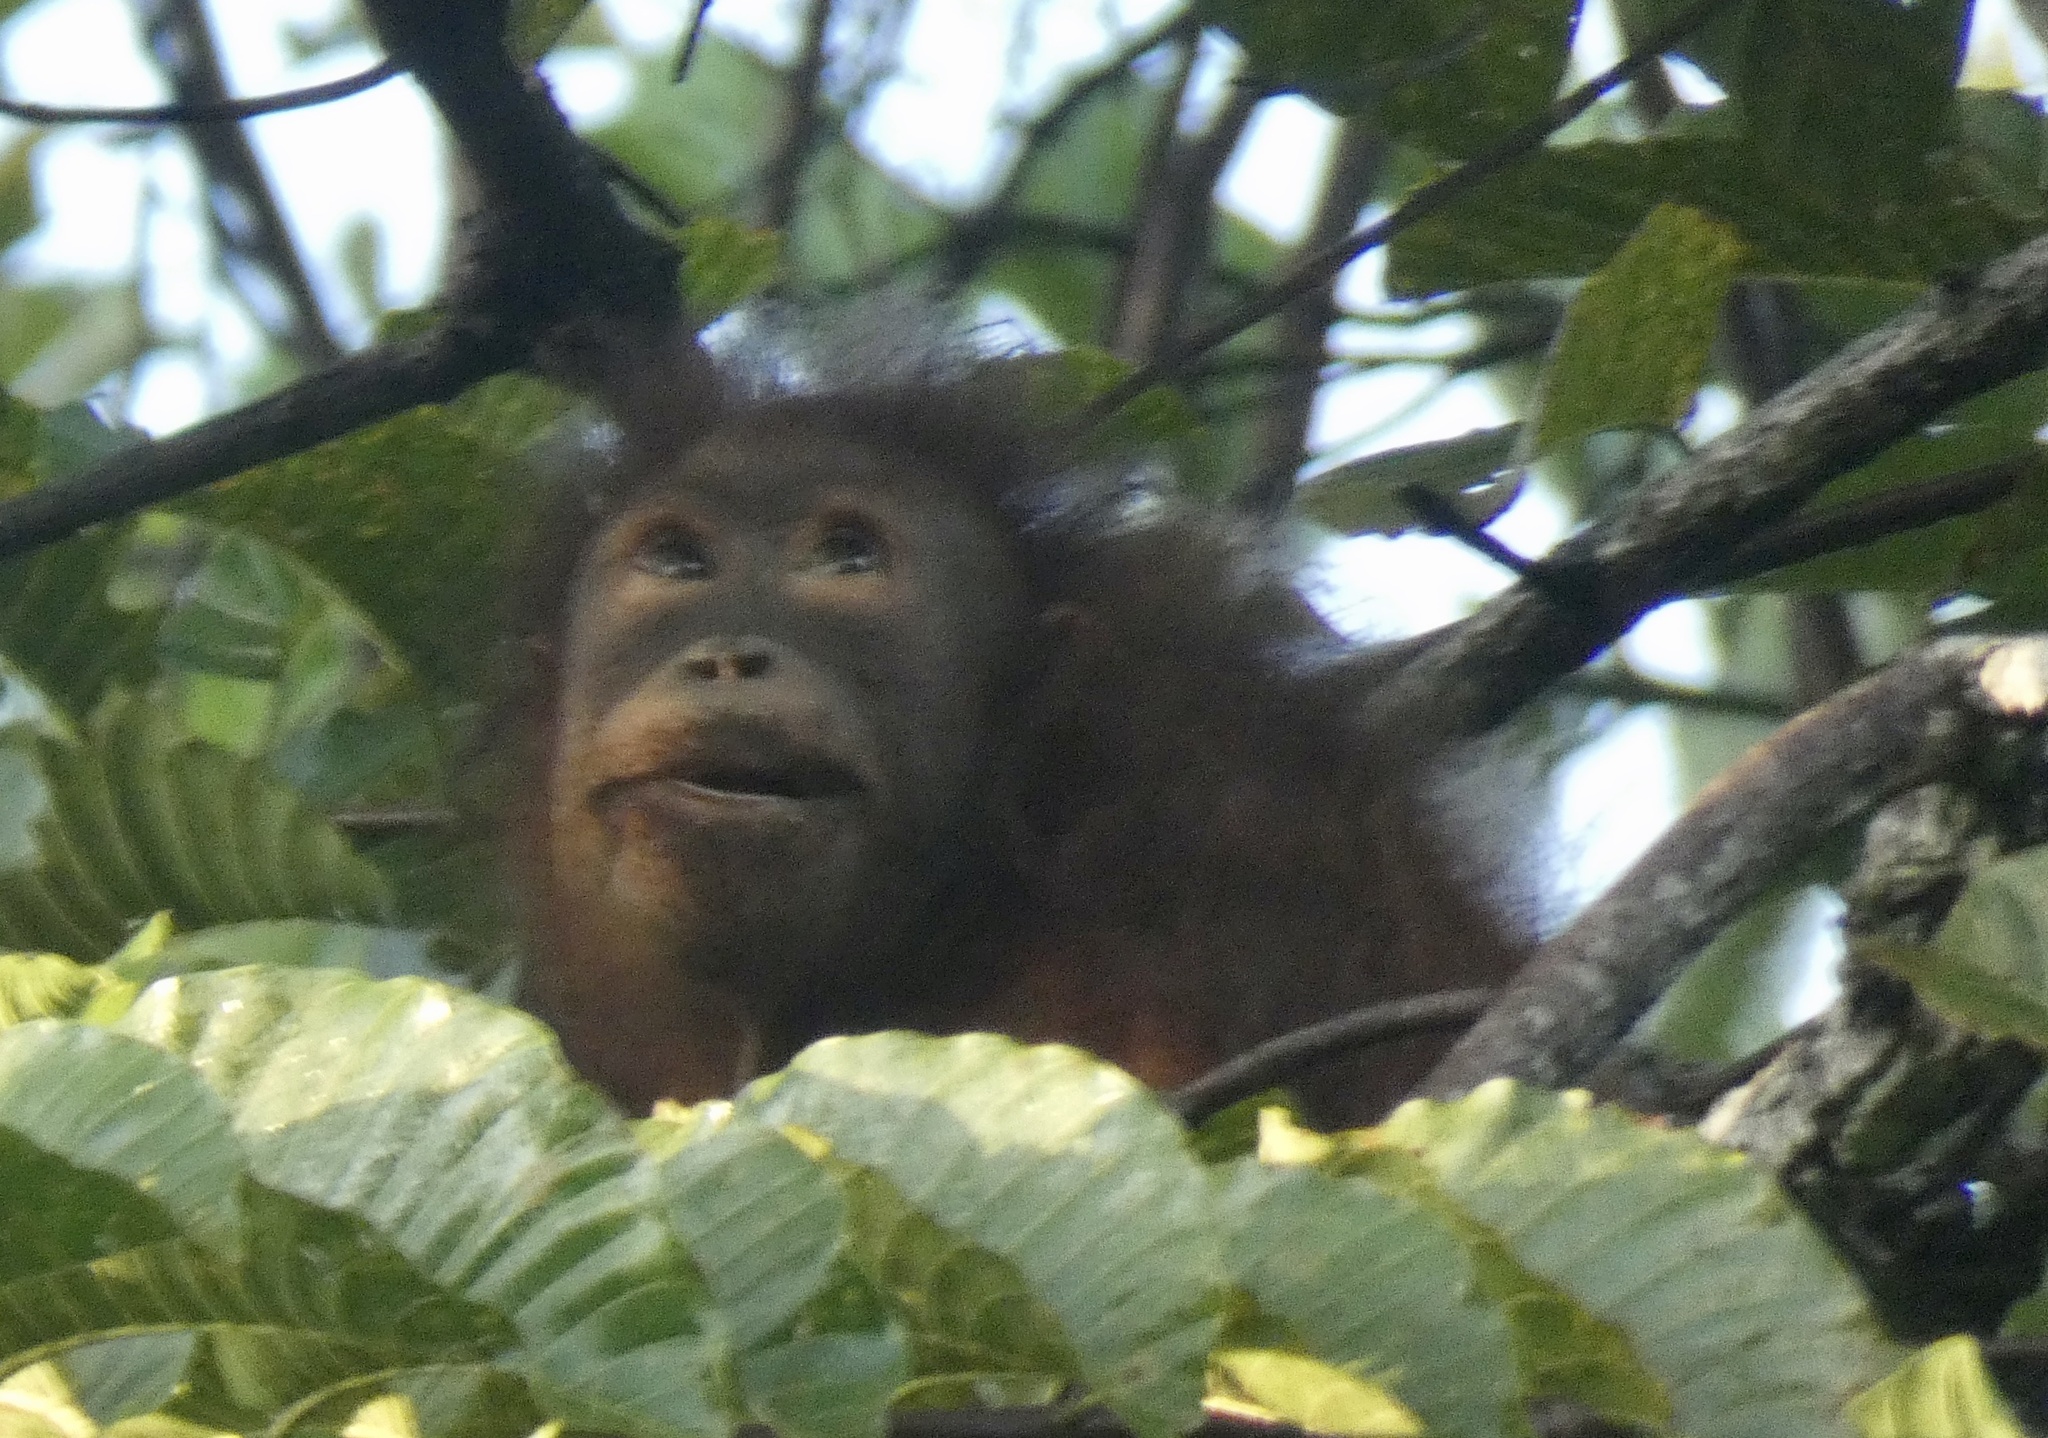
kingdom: Animalia
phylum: Chordata
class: Mammalia
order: Primates
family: Hominidae
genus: Pongo
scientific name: Pongo pygmaeus
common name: Bornean orangutan
